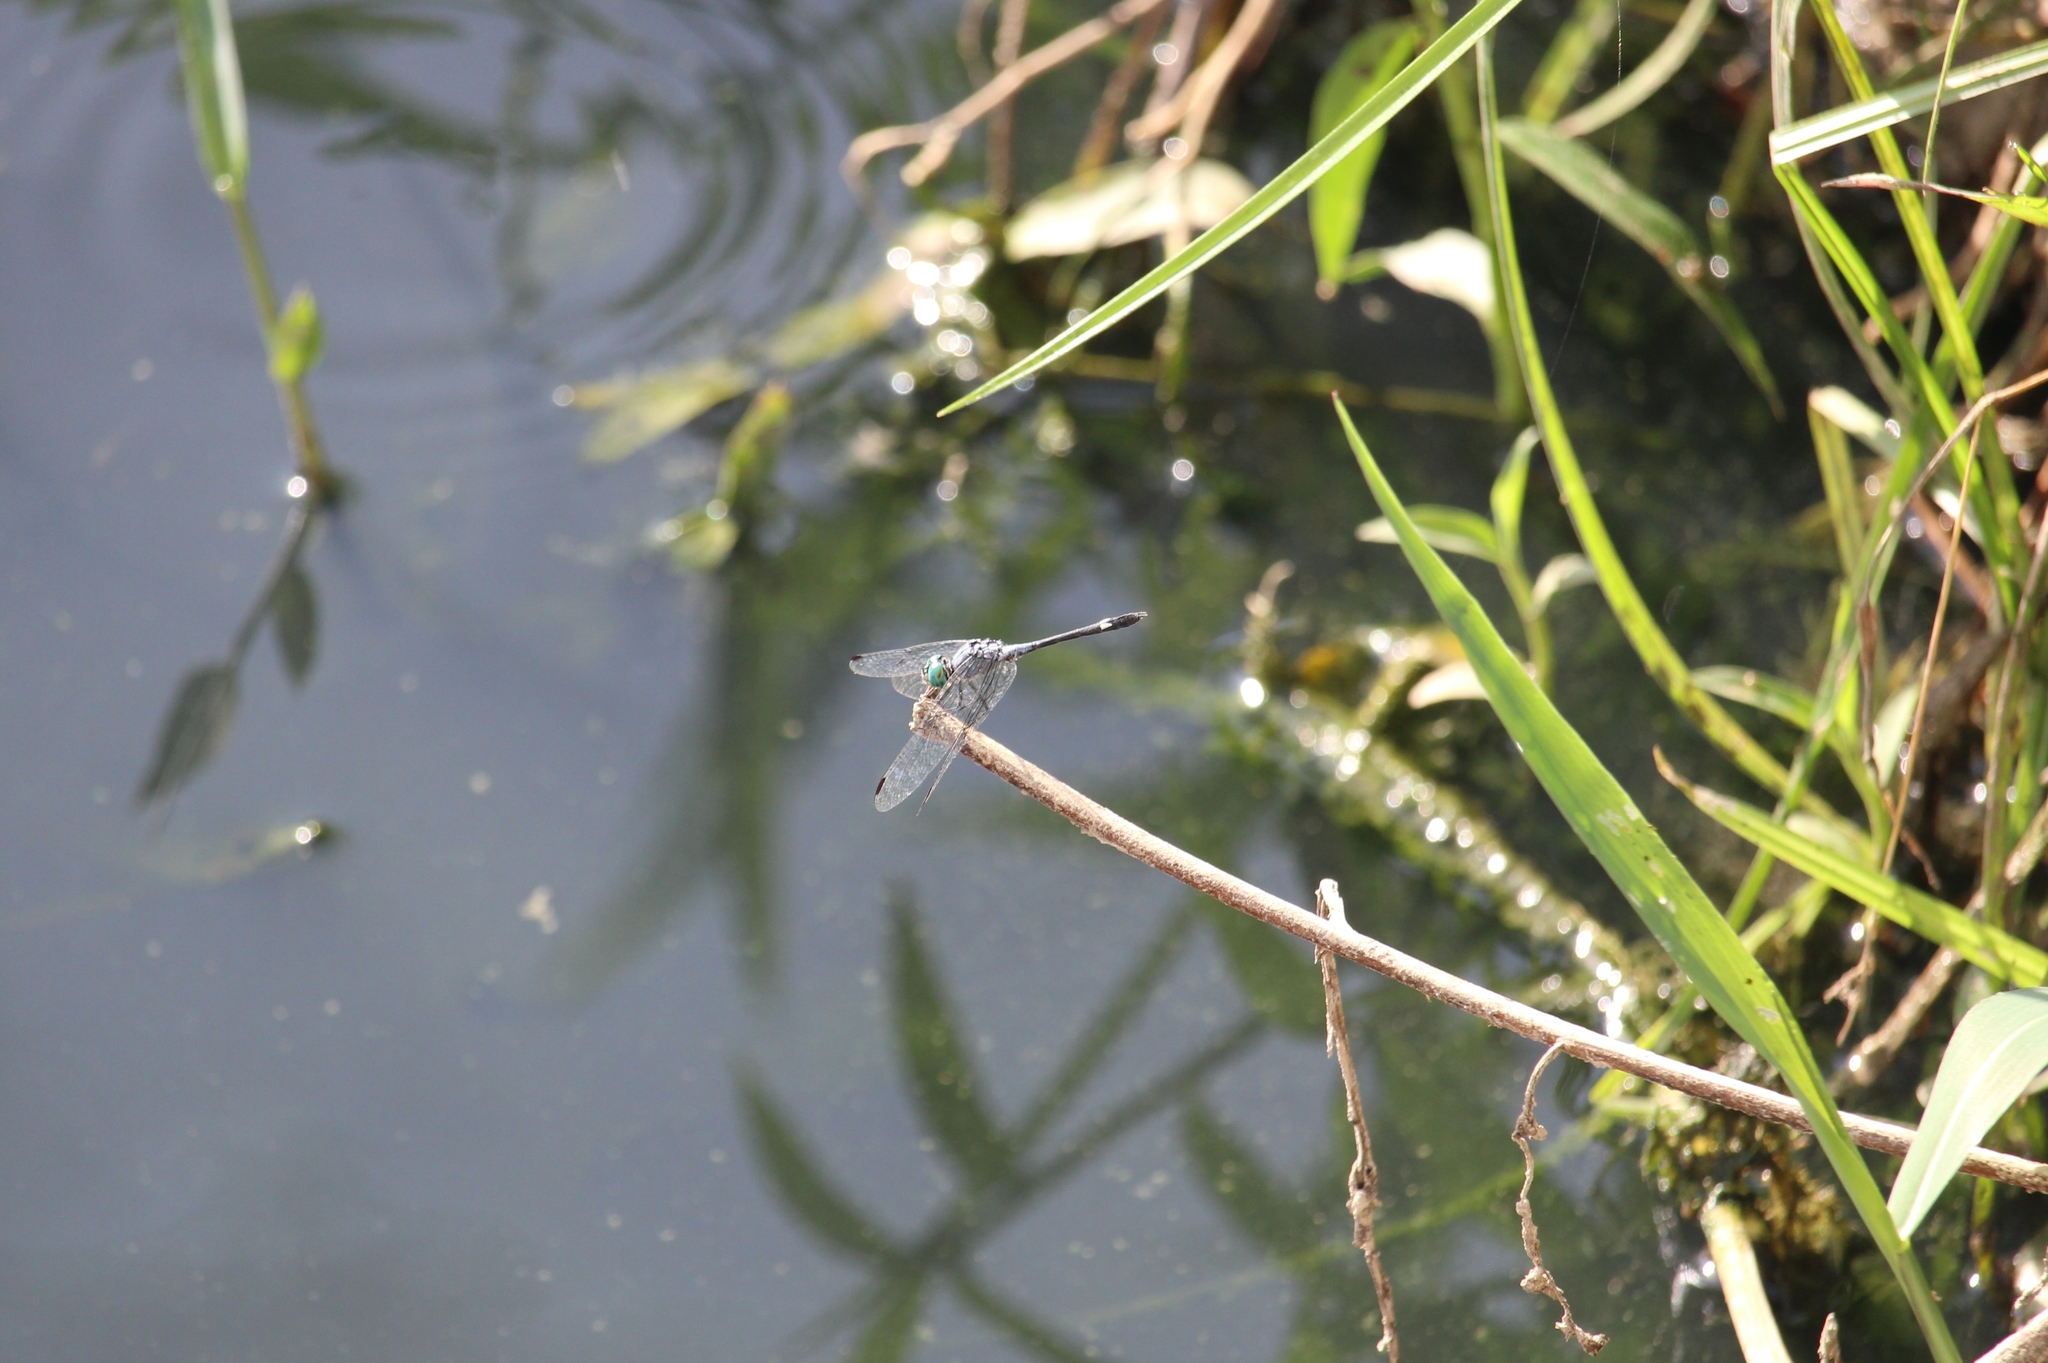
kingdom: Animalia
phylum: Arthropoda
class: Insecta
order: Odonata
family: Libellulidae
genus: Micrathyria
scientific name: Micrathyria aequalis
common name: Spot-tailed dasher
